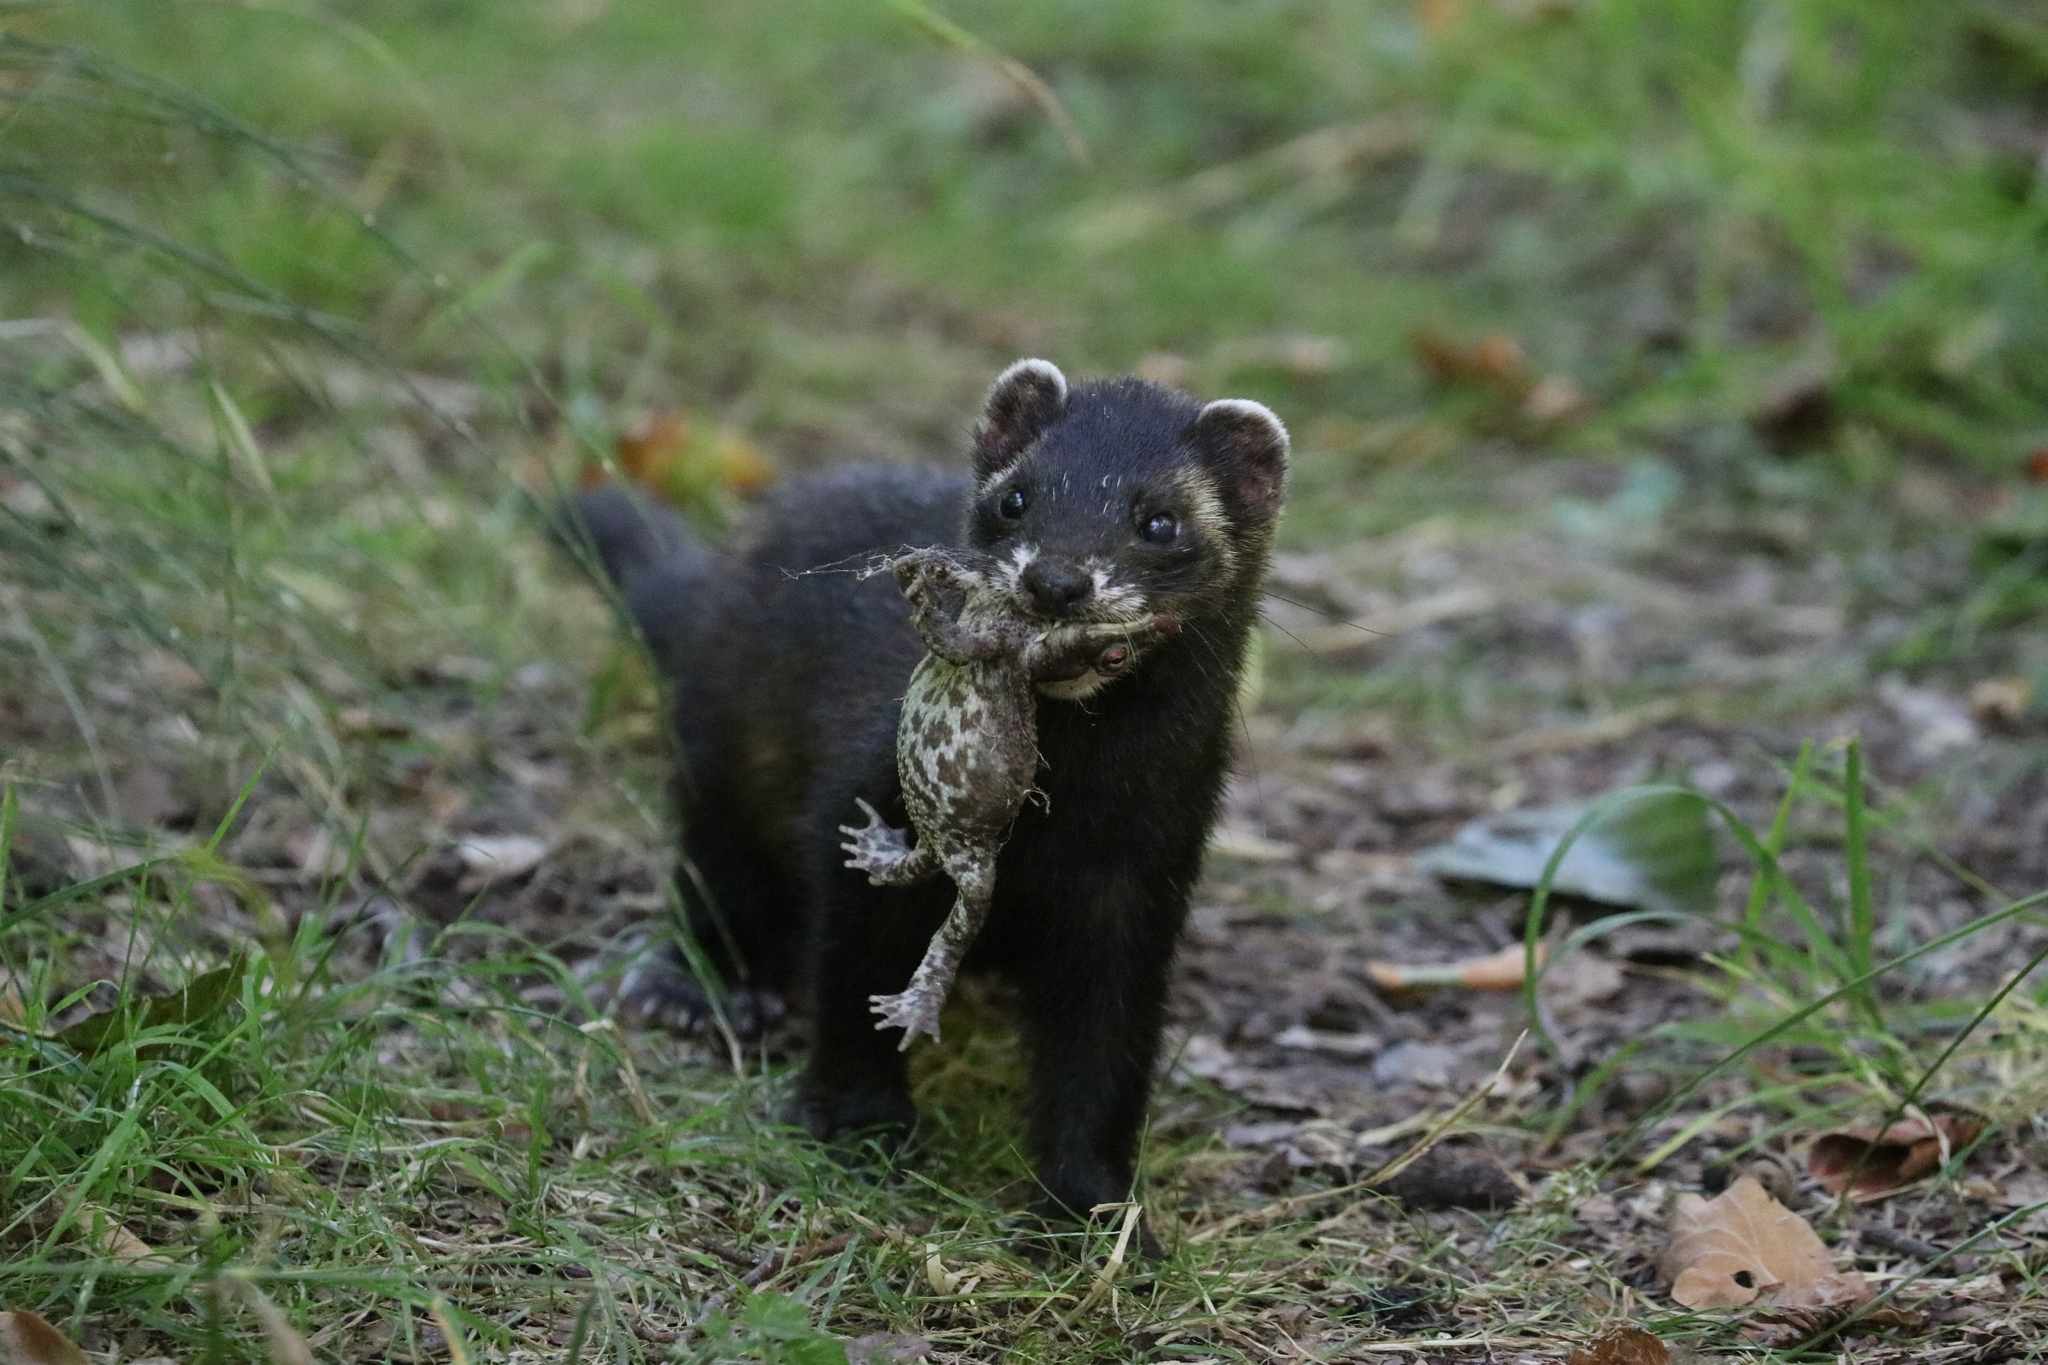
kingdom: Animalia
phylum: Chordata
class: Mammalia
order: Carnivora
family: Mustelidae
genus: Mustela
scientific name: Mustela putorius
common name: European polecat
